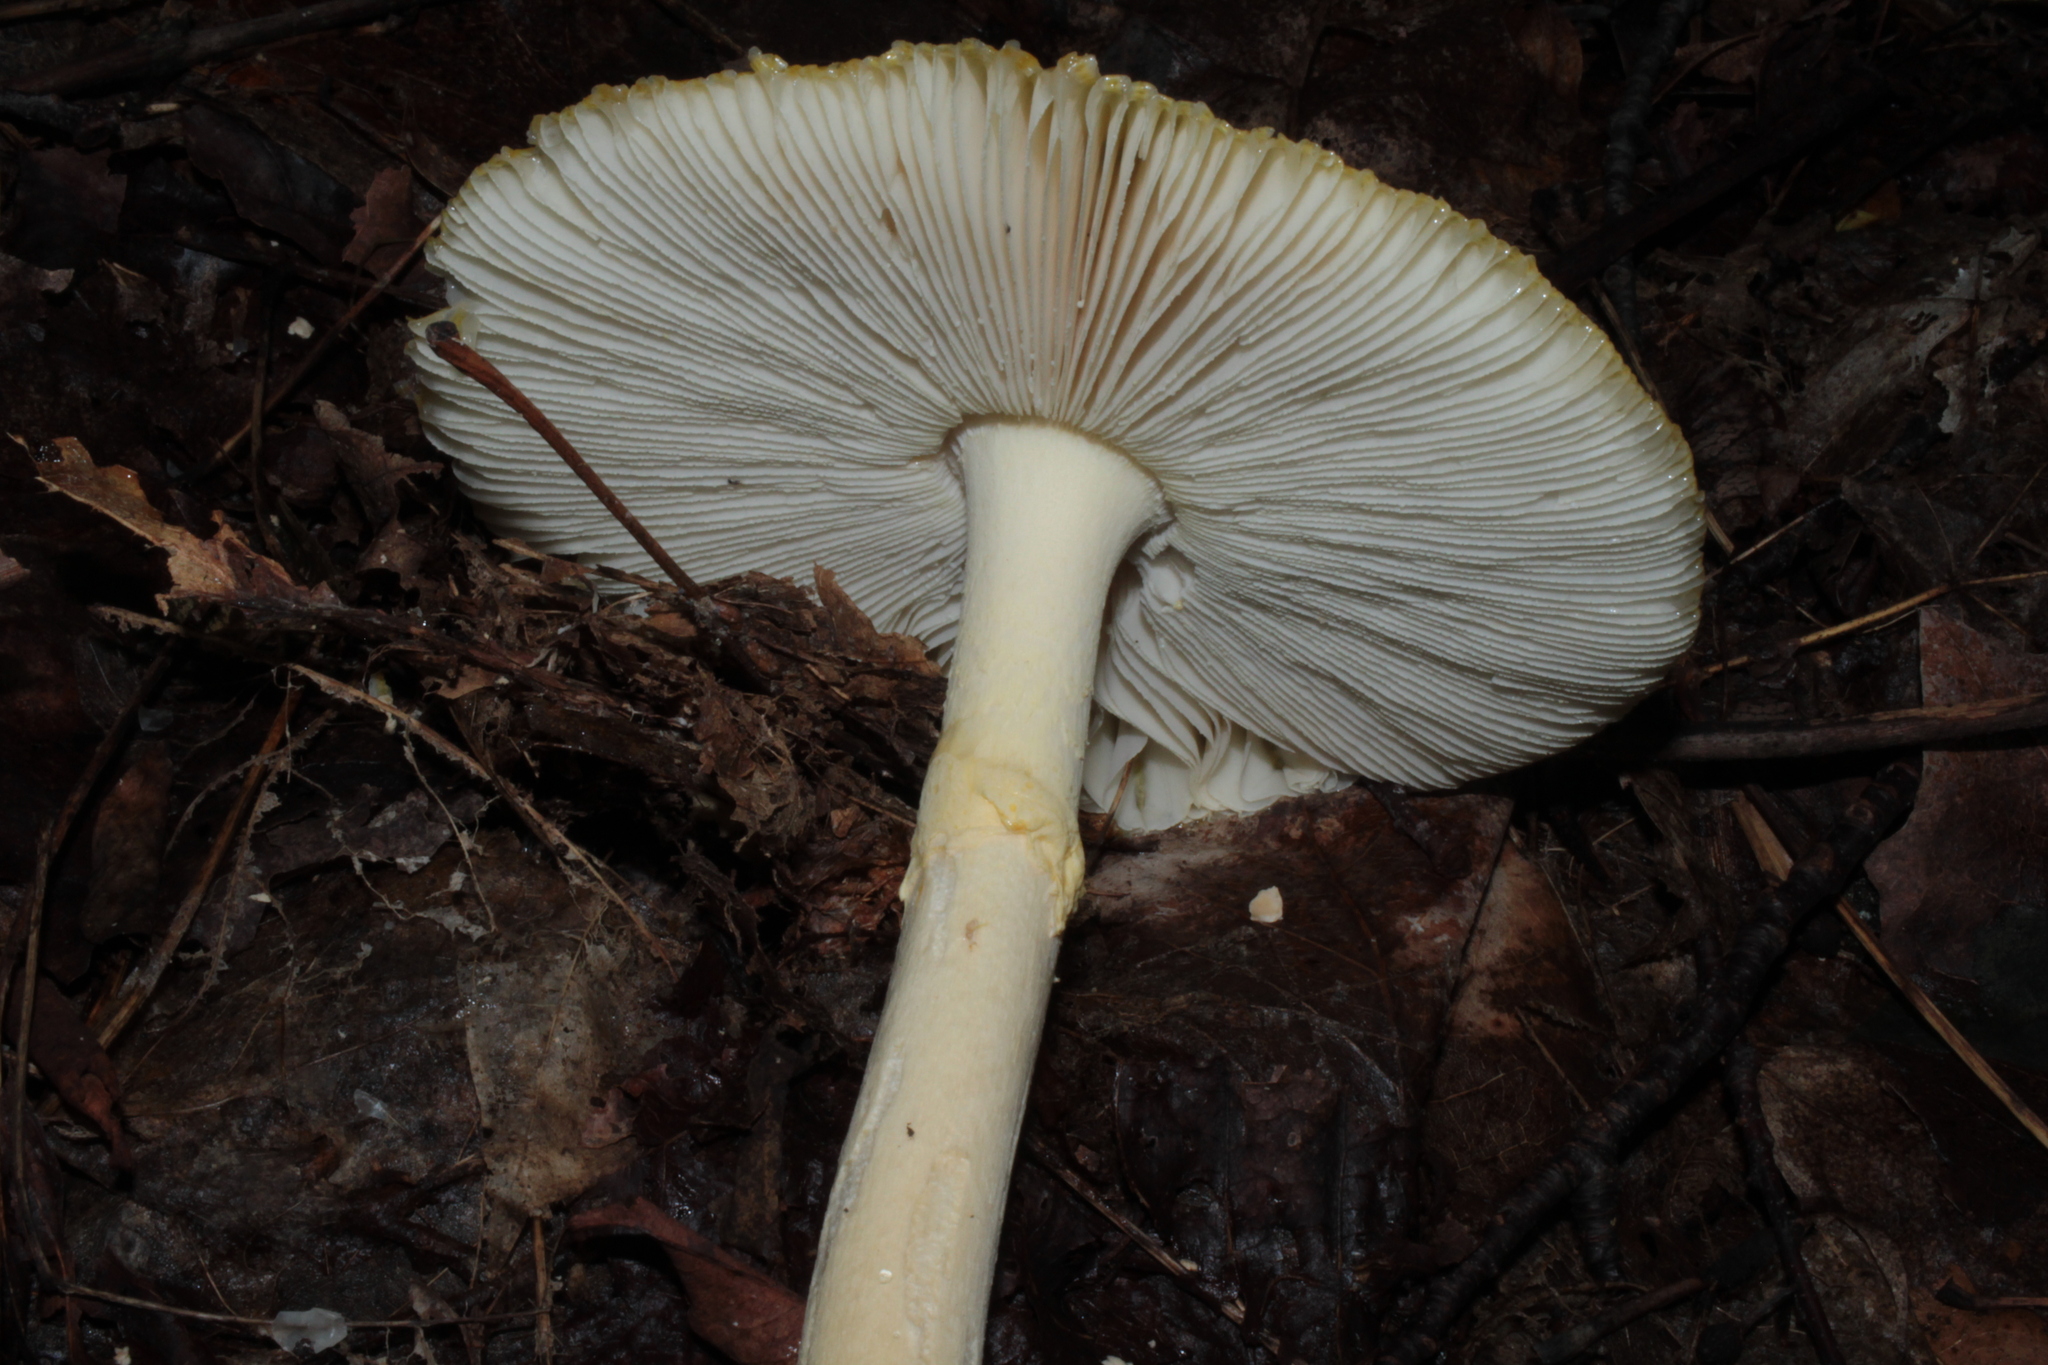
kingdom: Fungi
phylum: Basidiomycota
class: Agaricomycetes
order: Agaricales
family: Amanitaceae
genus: Amanita
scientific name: Amanita muscaria
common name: Fly agaric
